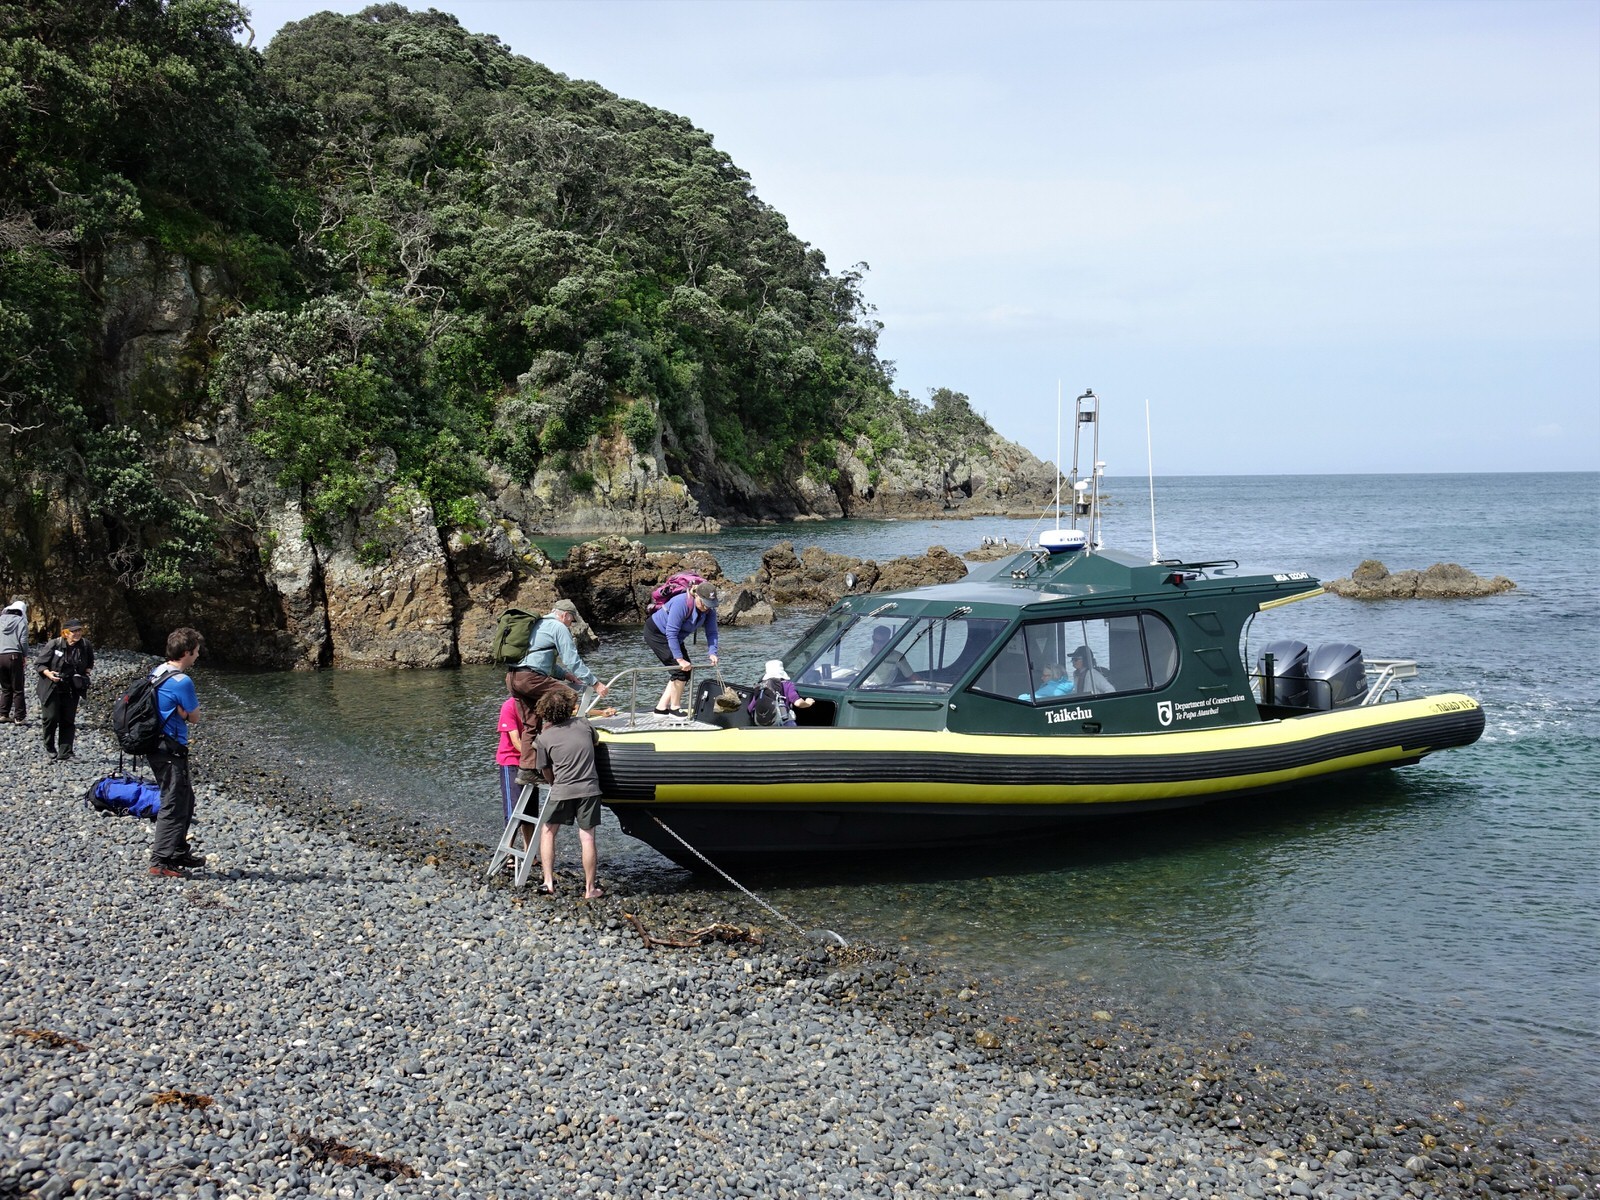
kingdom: Animalia
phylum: Chordata
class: Aves
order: Suliformes
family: Phalacrocoracidae
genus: Phalacrocorax
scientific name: Phalacrocorax varius
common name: Pied cormorant
